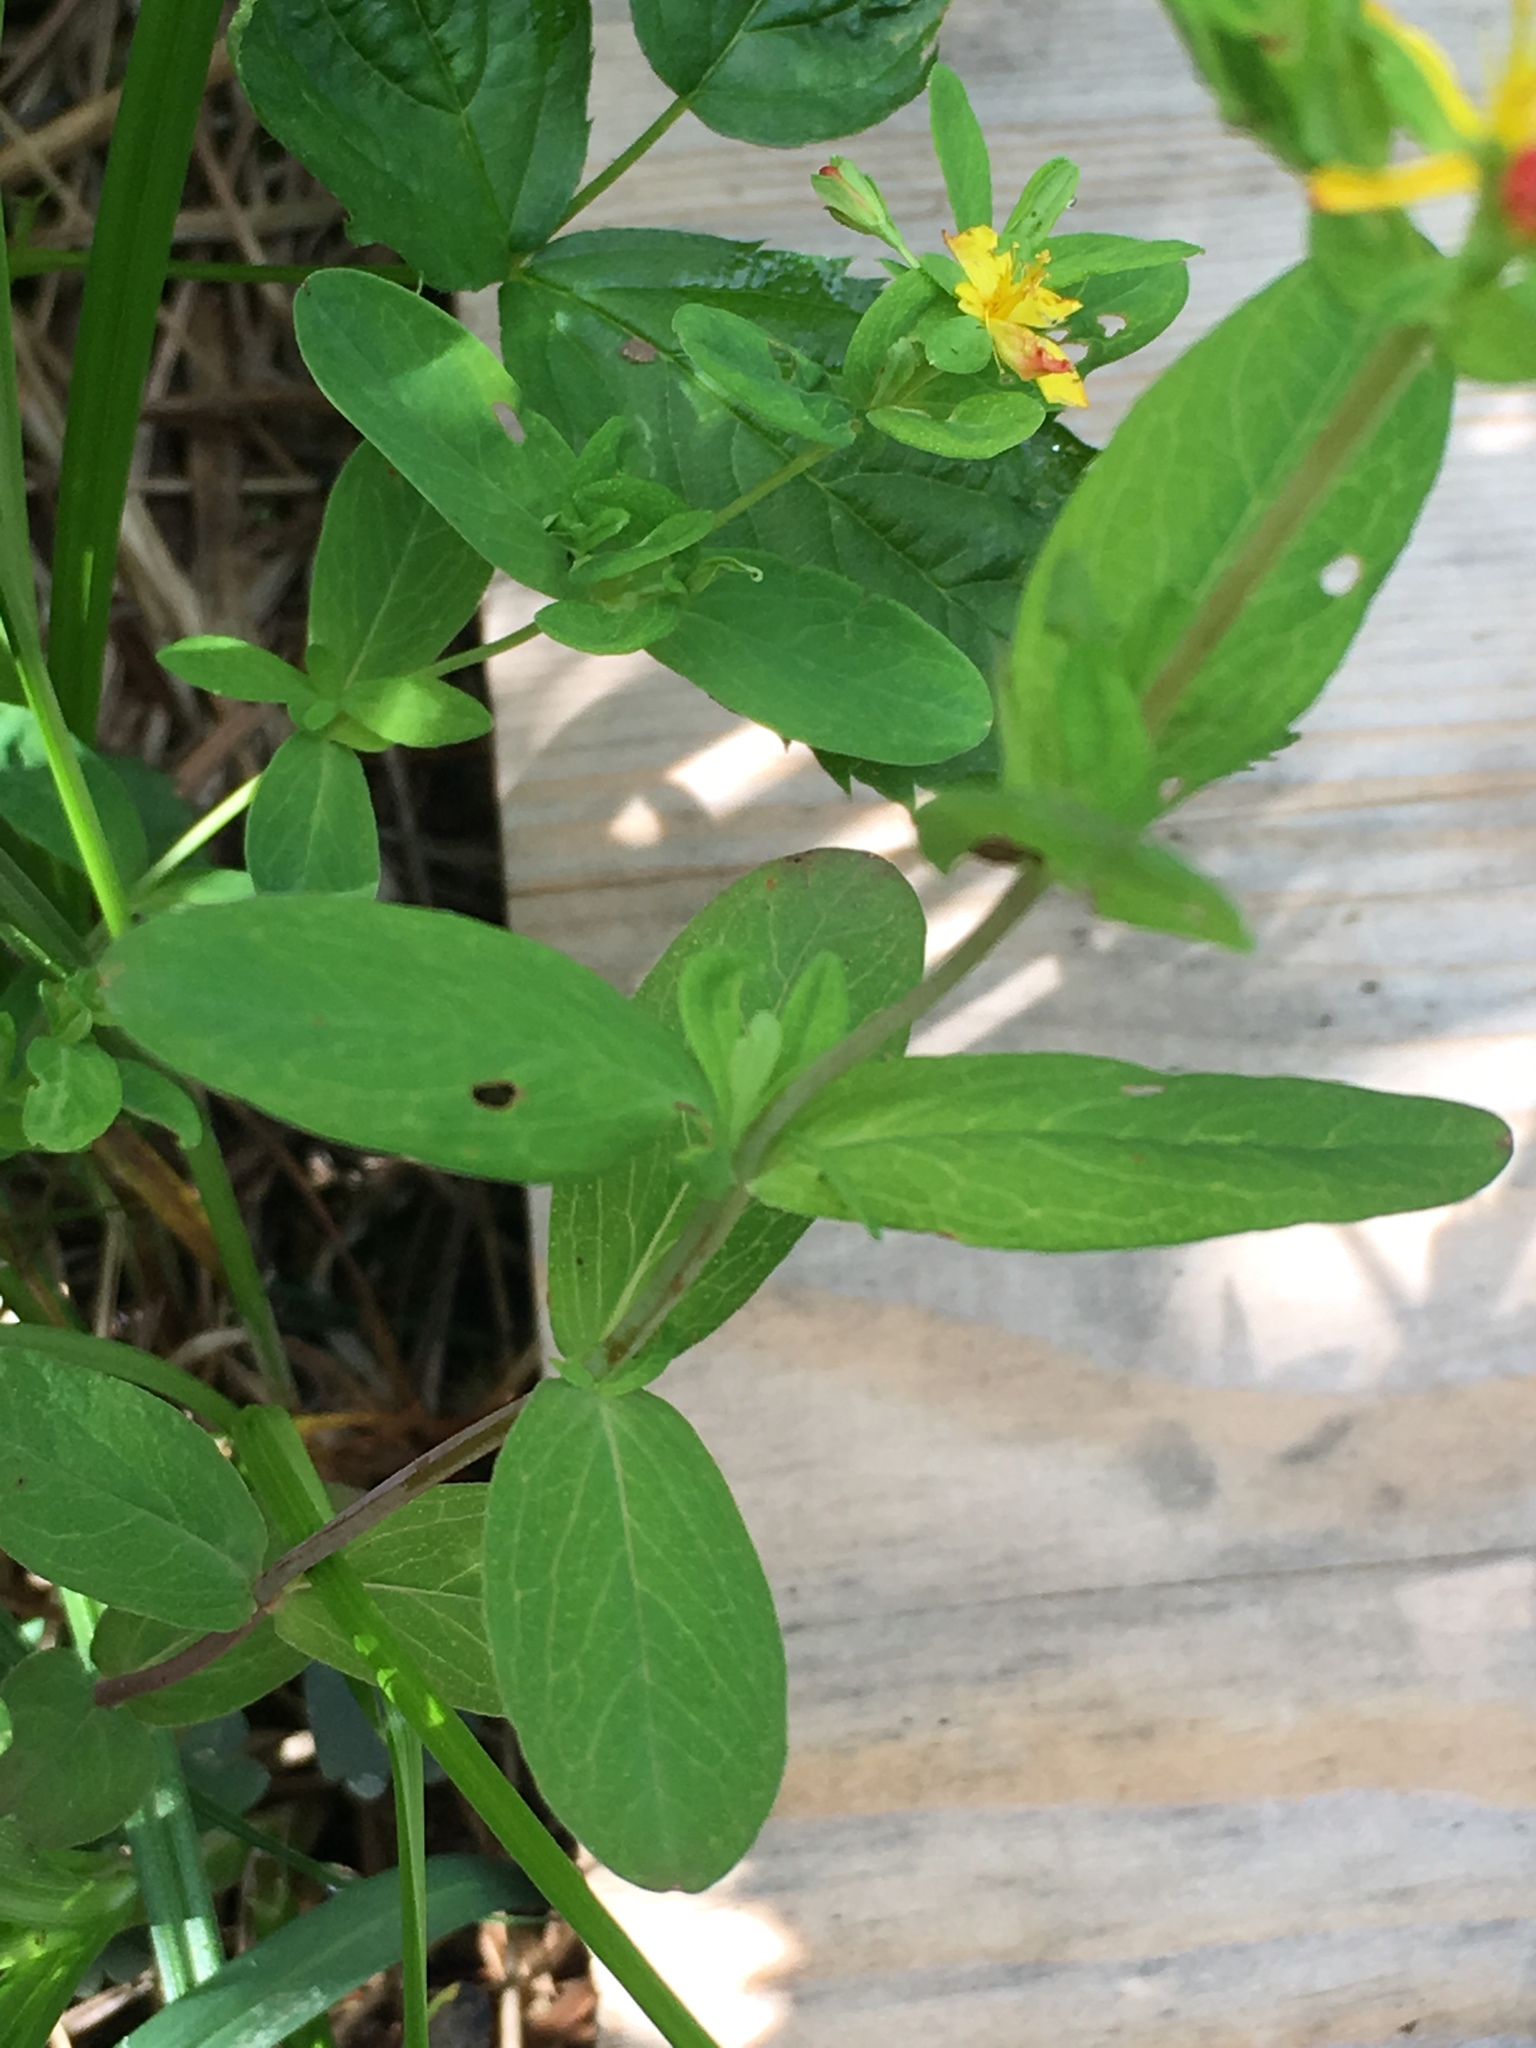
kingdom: Plantae
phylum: Tracheophyta
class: Magnoliopsida
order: Malpighiales
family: Hypericaceae
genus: Hypericum
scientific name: Hypericum ellipticum
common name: Elliptic st. john's-wort
